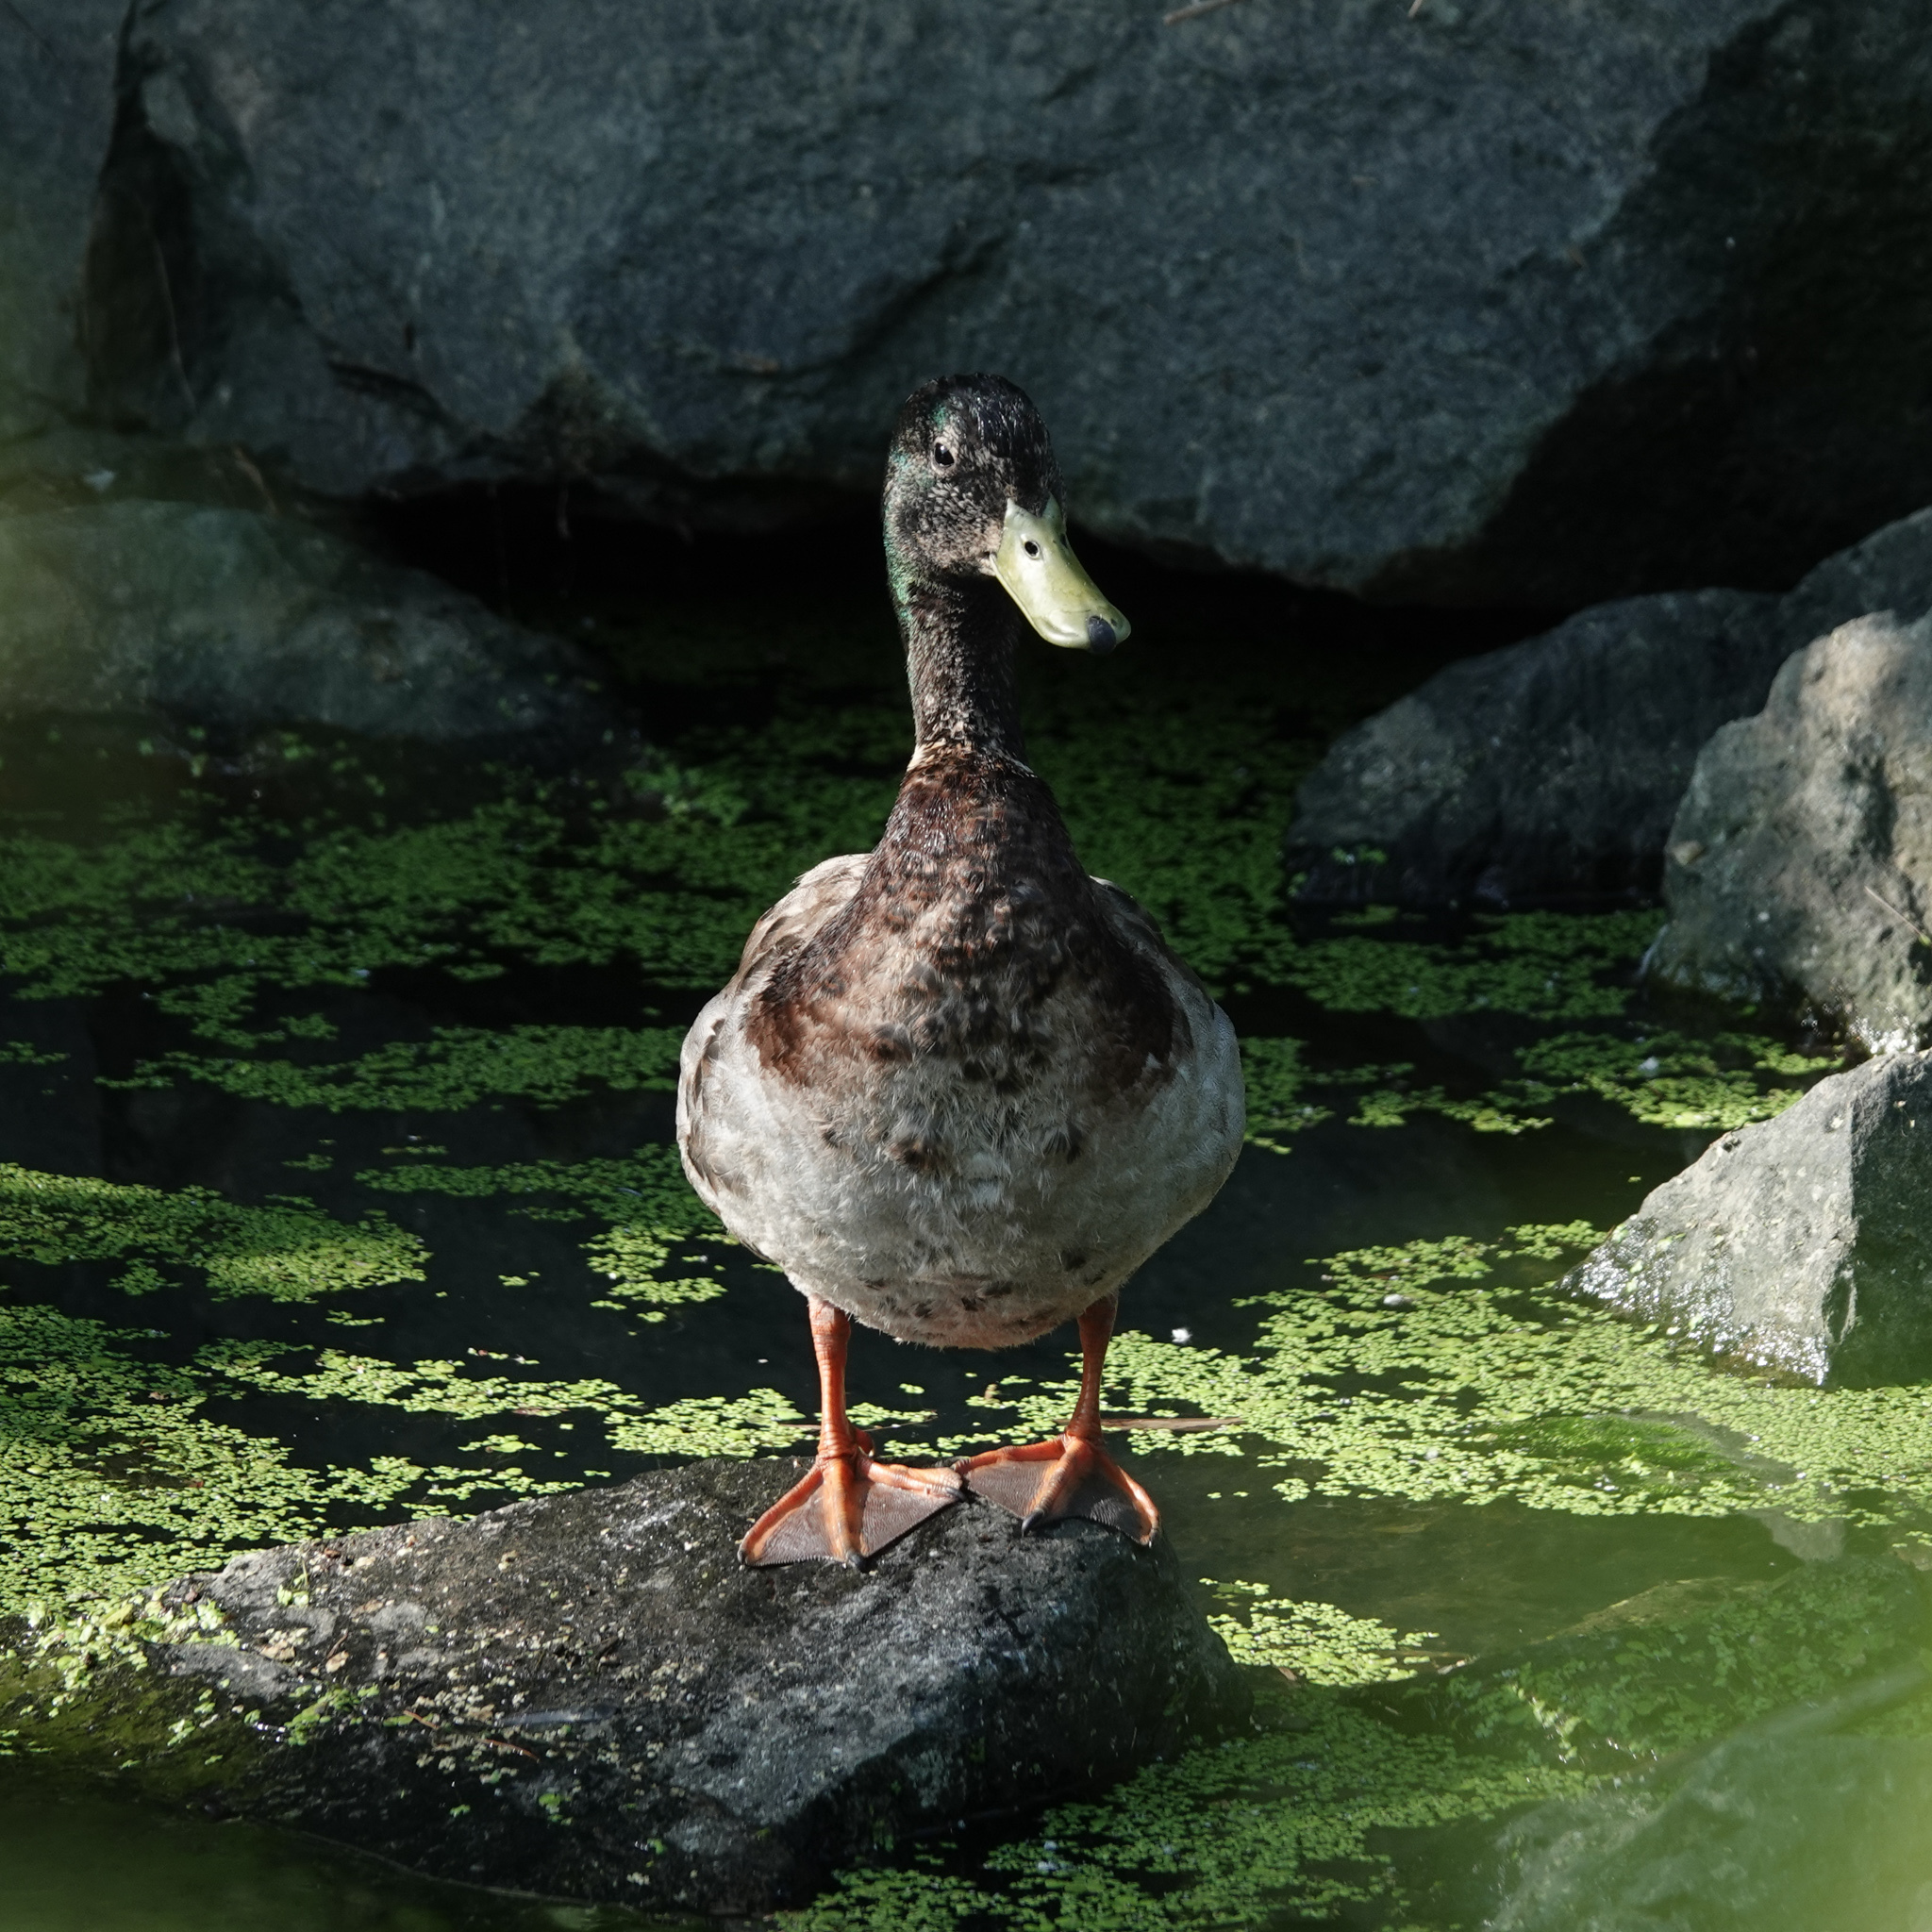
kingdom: Animalia
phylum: Chordata
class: Aves
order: Anseriformes
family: Anatidae
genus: Anas
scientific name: Anas platyrhynchos
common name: Mallard
